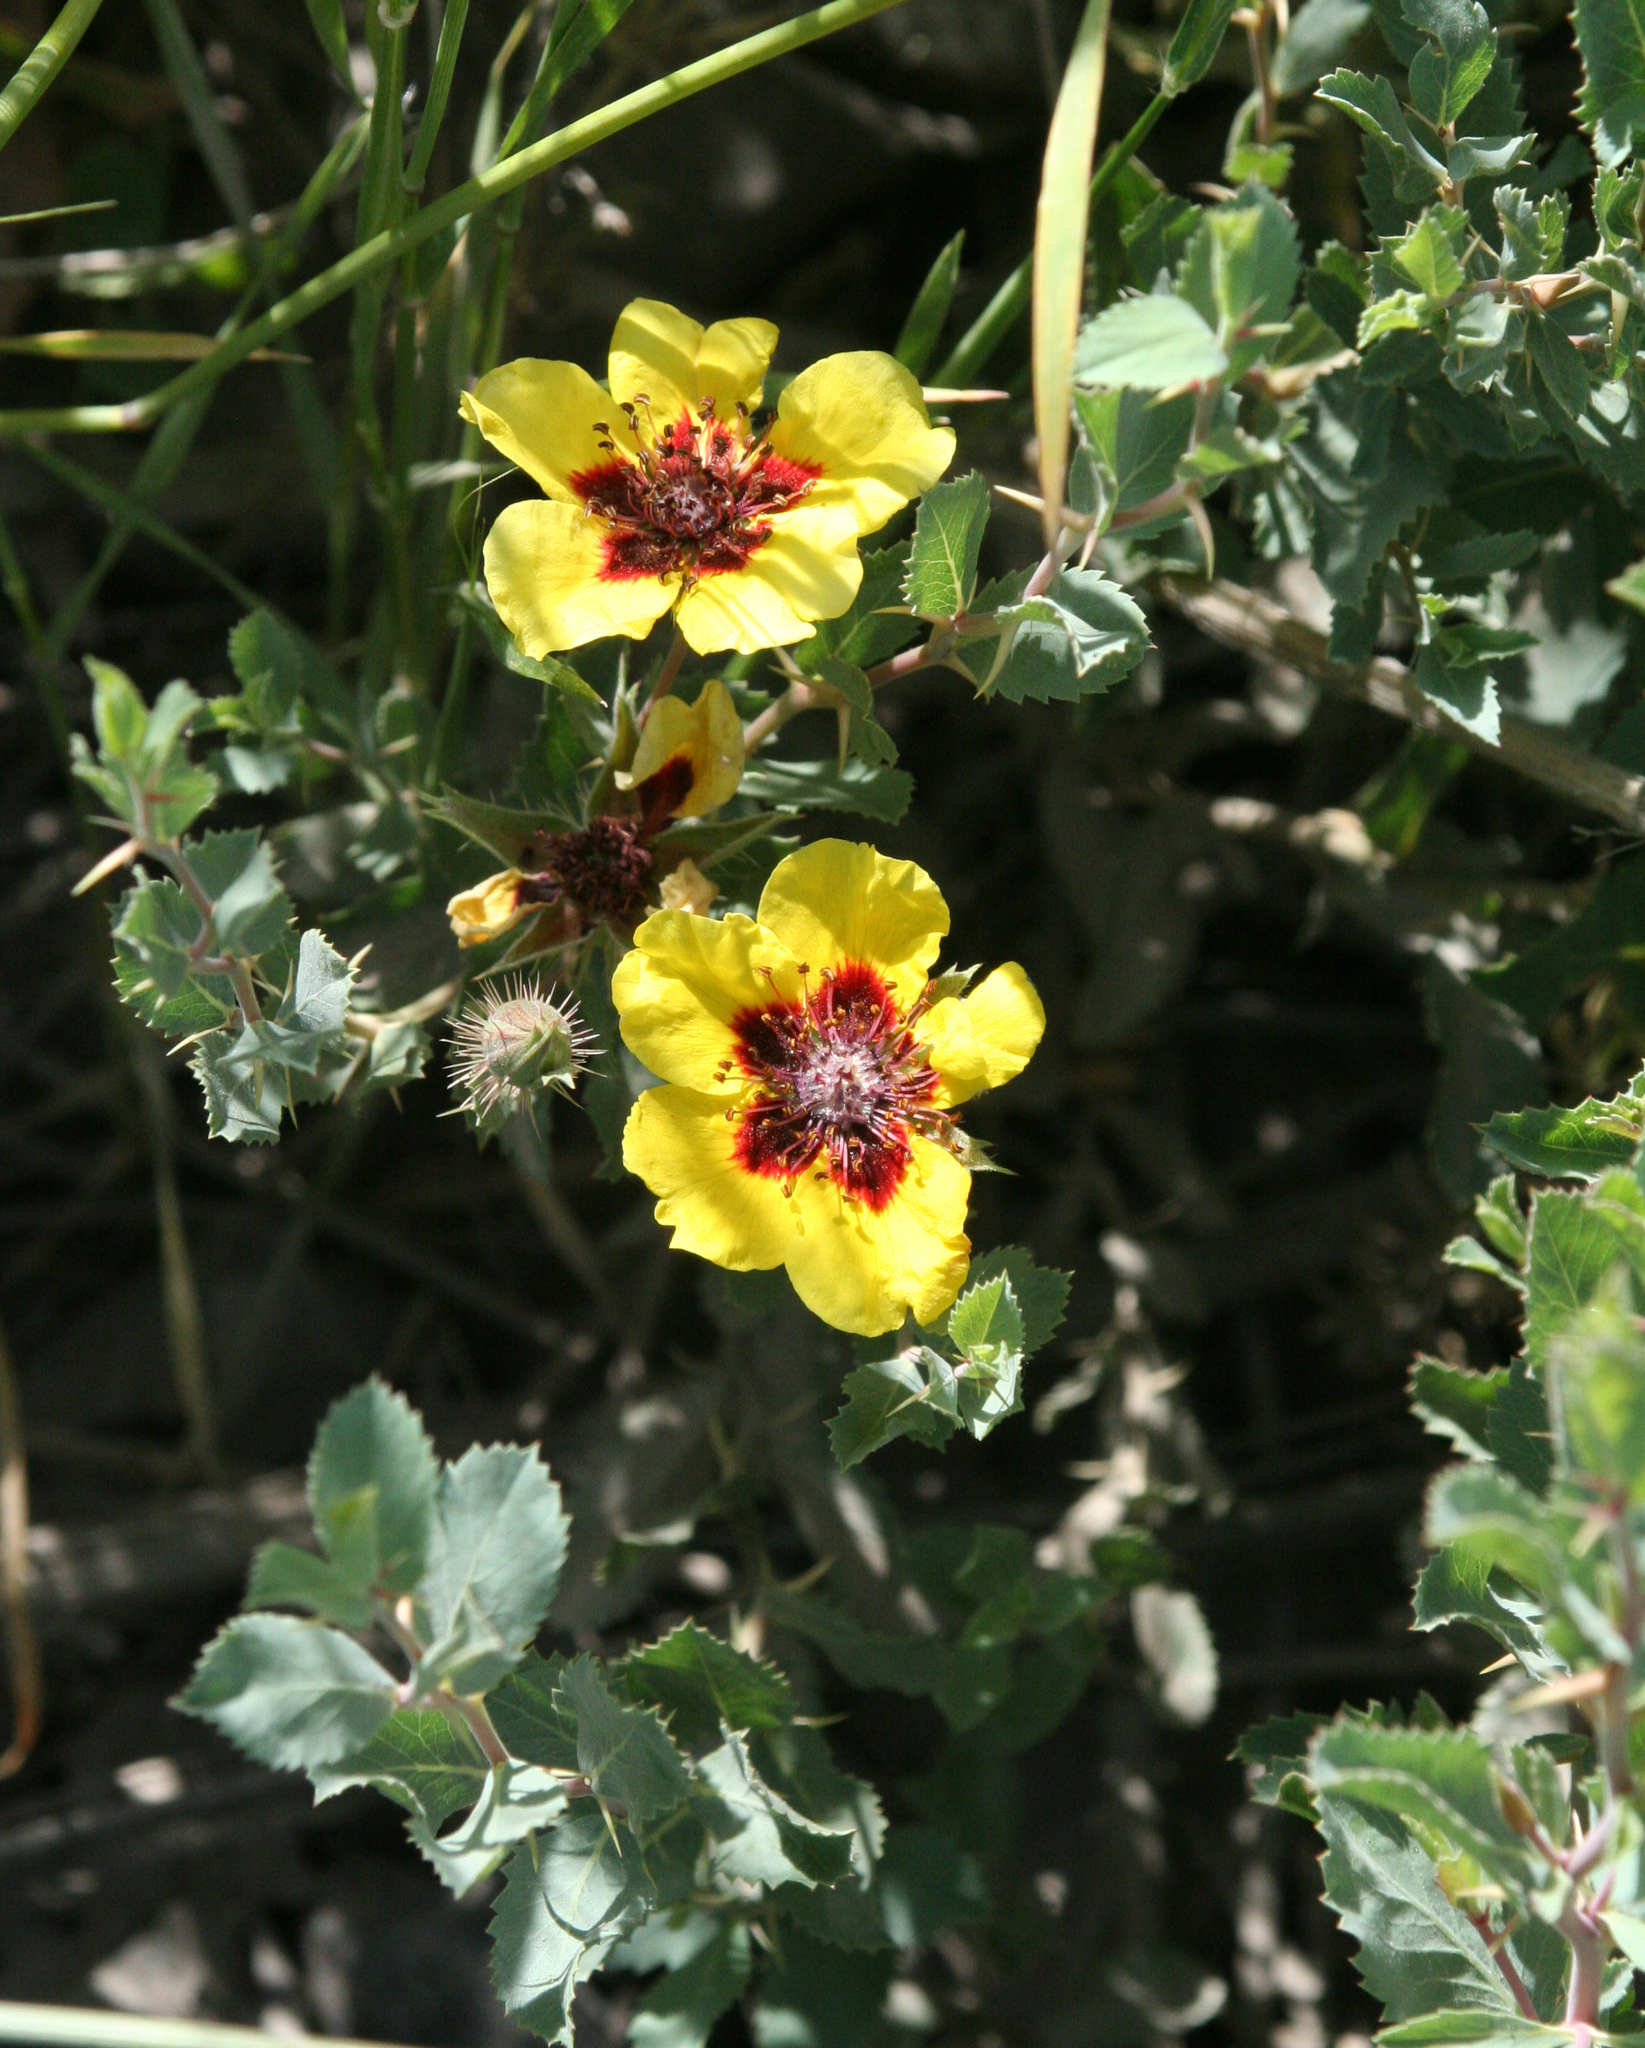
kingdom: Plantae
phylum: Tracheophyta
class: Magnoliopsida
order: Rosales
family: Rosaceae
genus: Rosa
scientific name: Rosa persica
